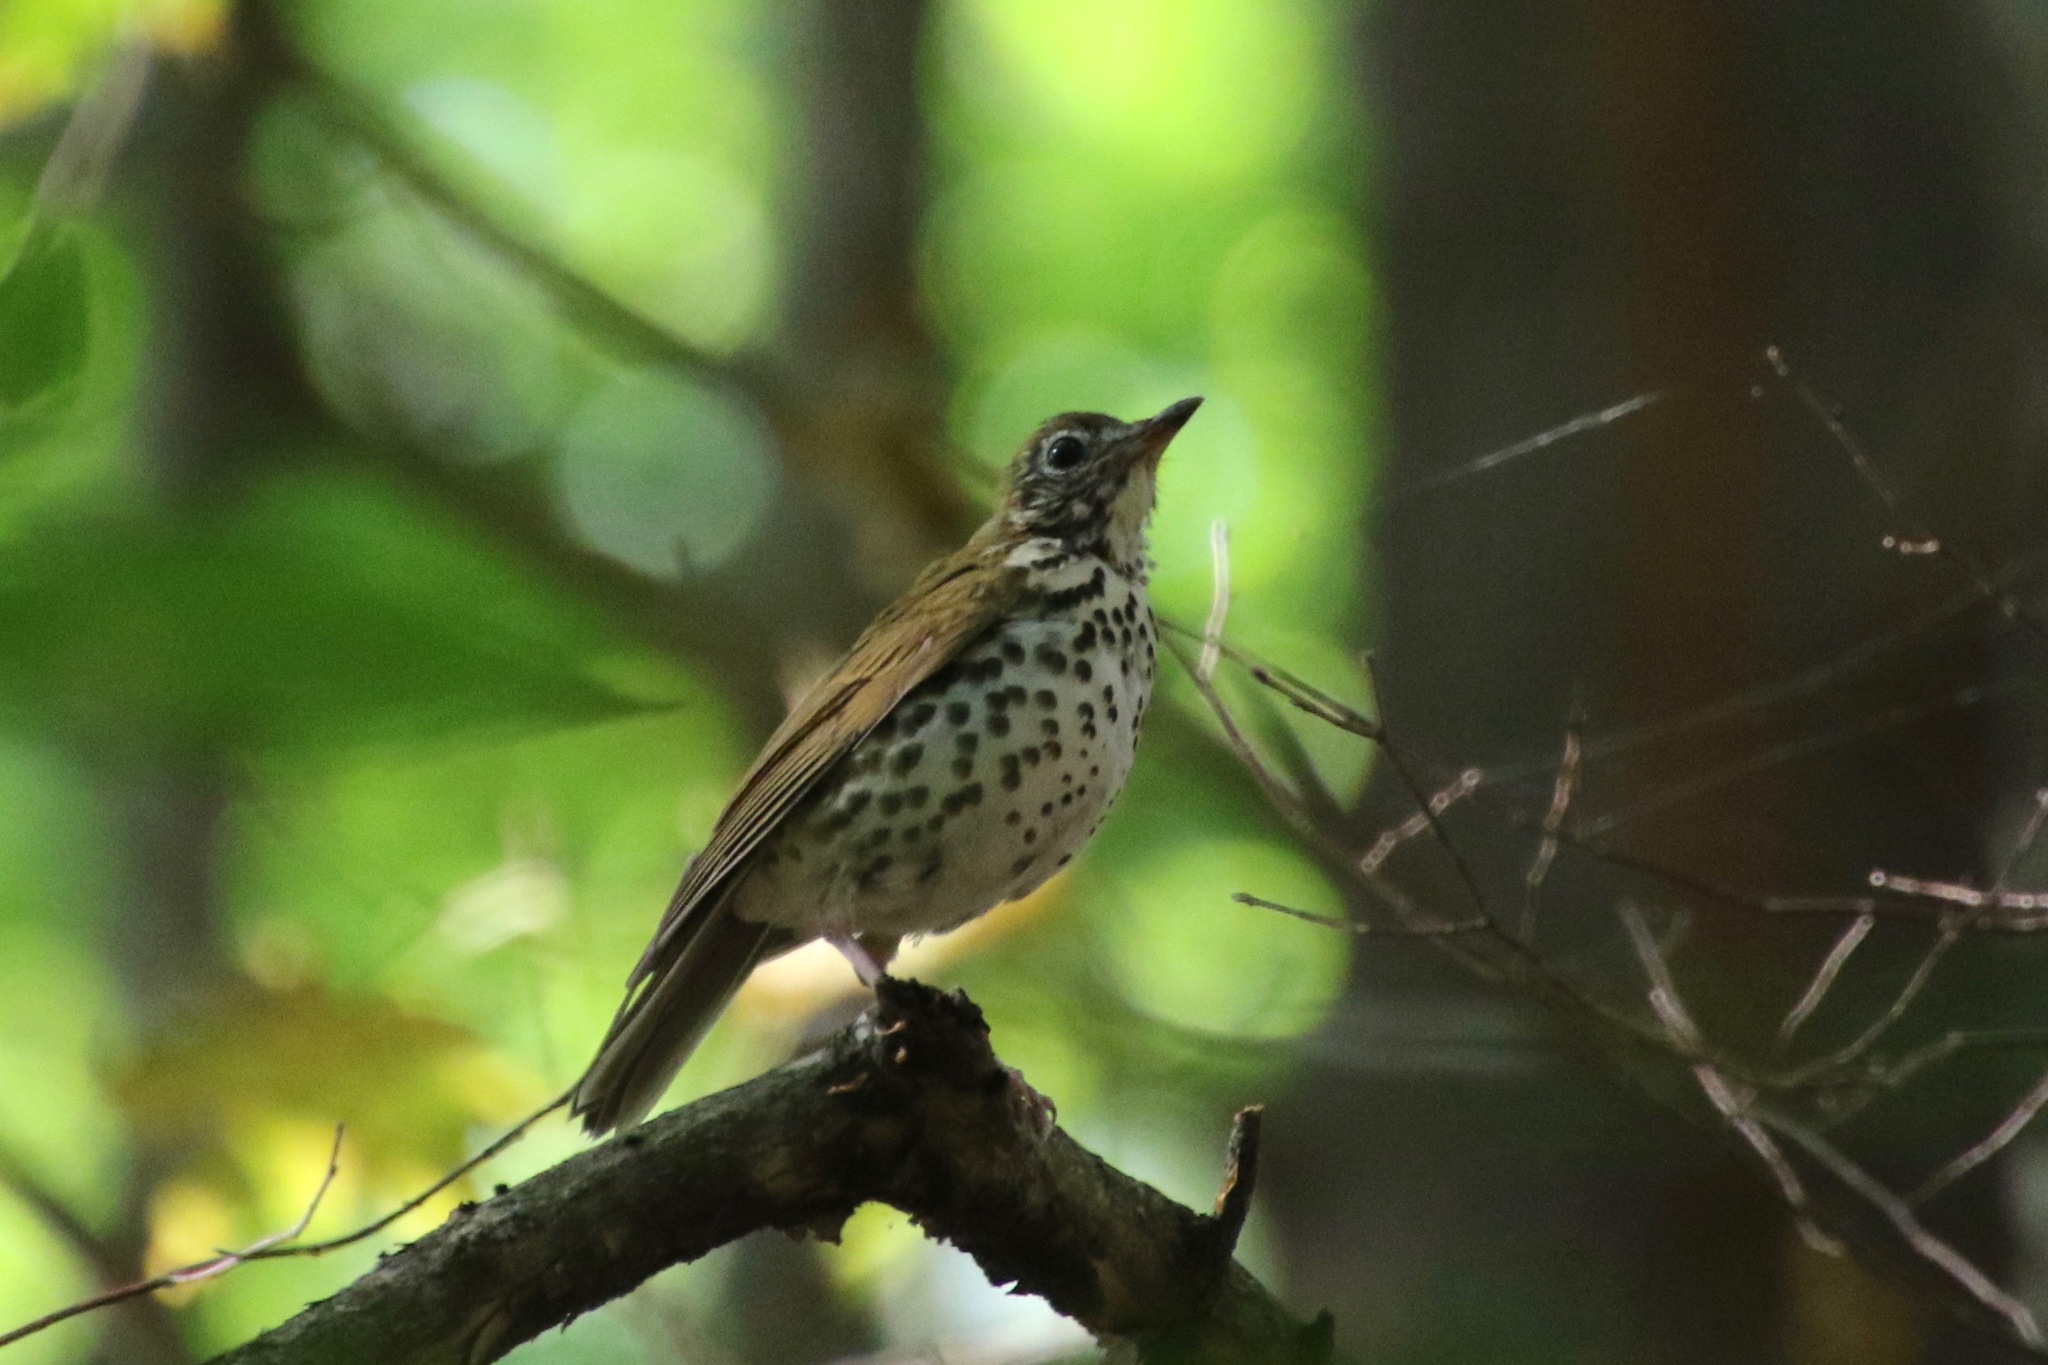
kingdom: Animalia
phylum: Chordata
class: Aves
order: Passeriformes
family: Turdidae
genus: Hylocichla
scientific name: Hylocichla mustelina
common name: Wood thrush
